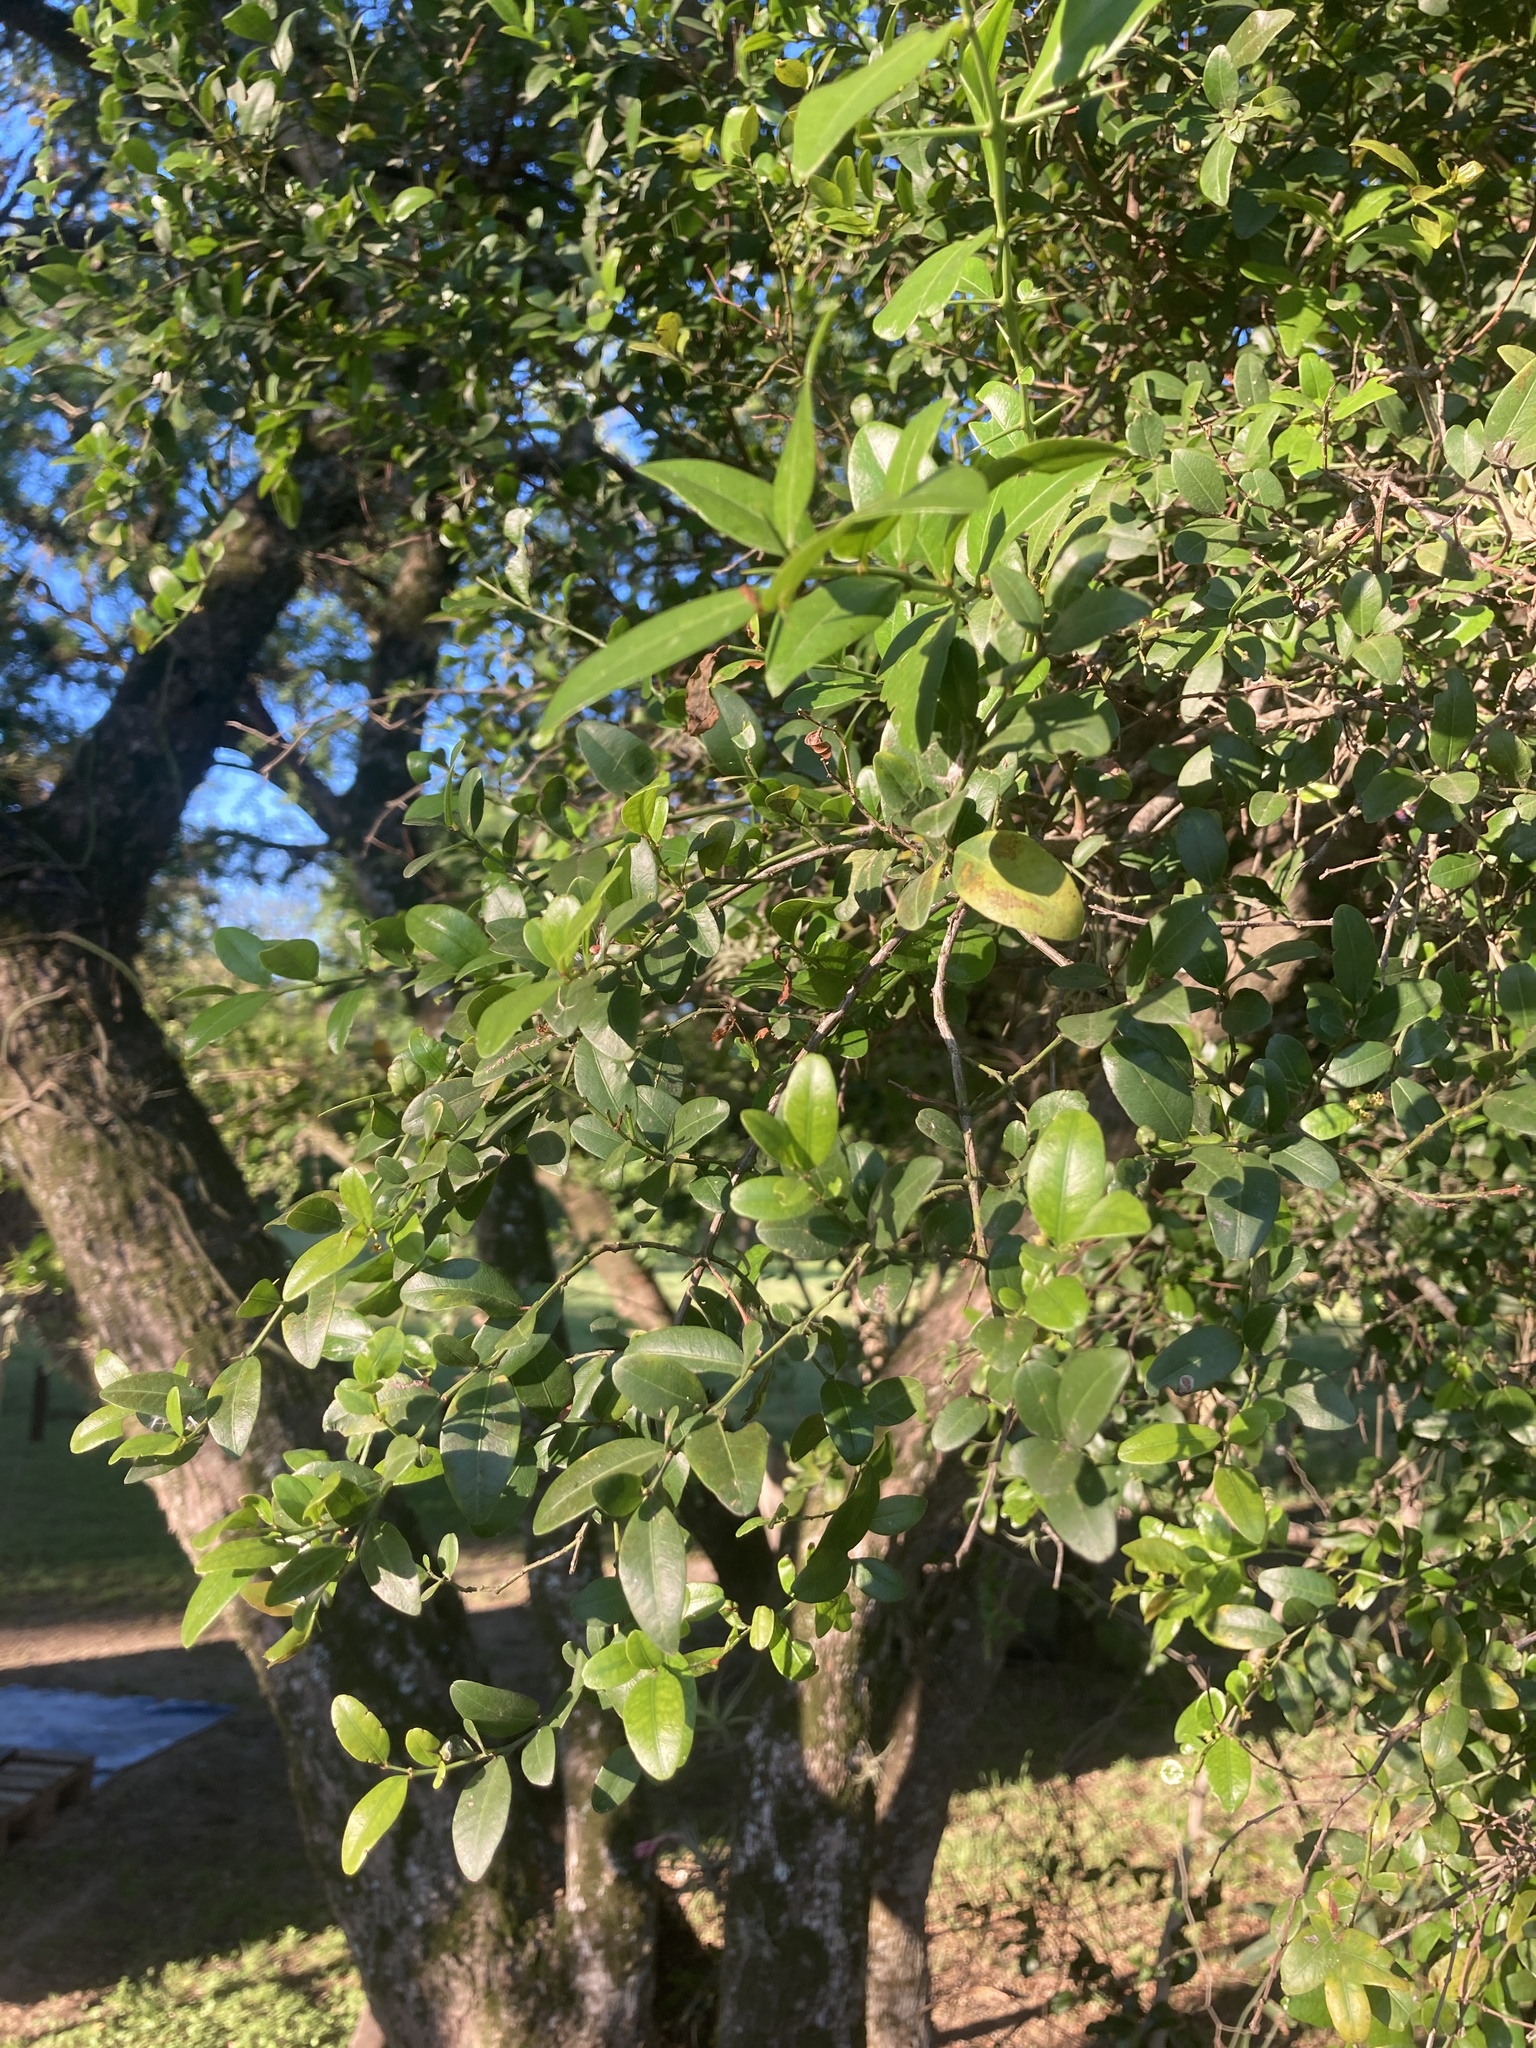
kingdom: Plantae
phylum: Tracheophyta
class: Magnoliopsida
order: Rosales
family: Rhamnaceae
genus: Scutia
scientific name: Scutia buxifolia
